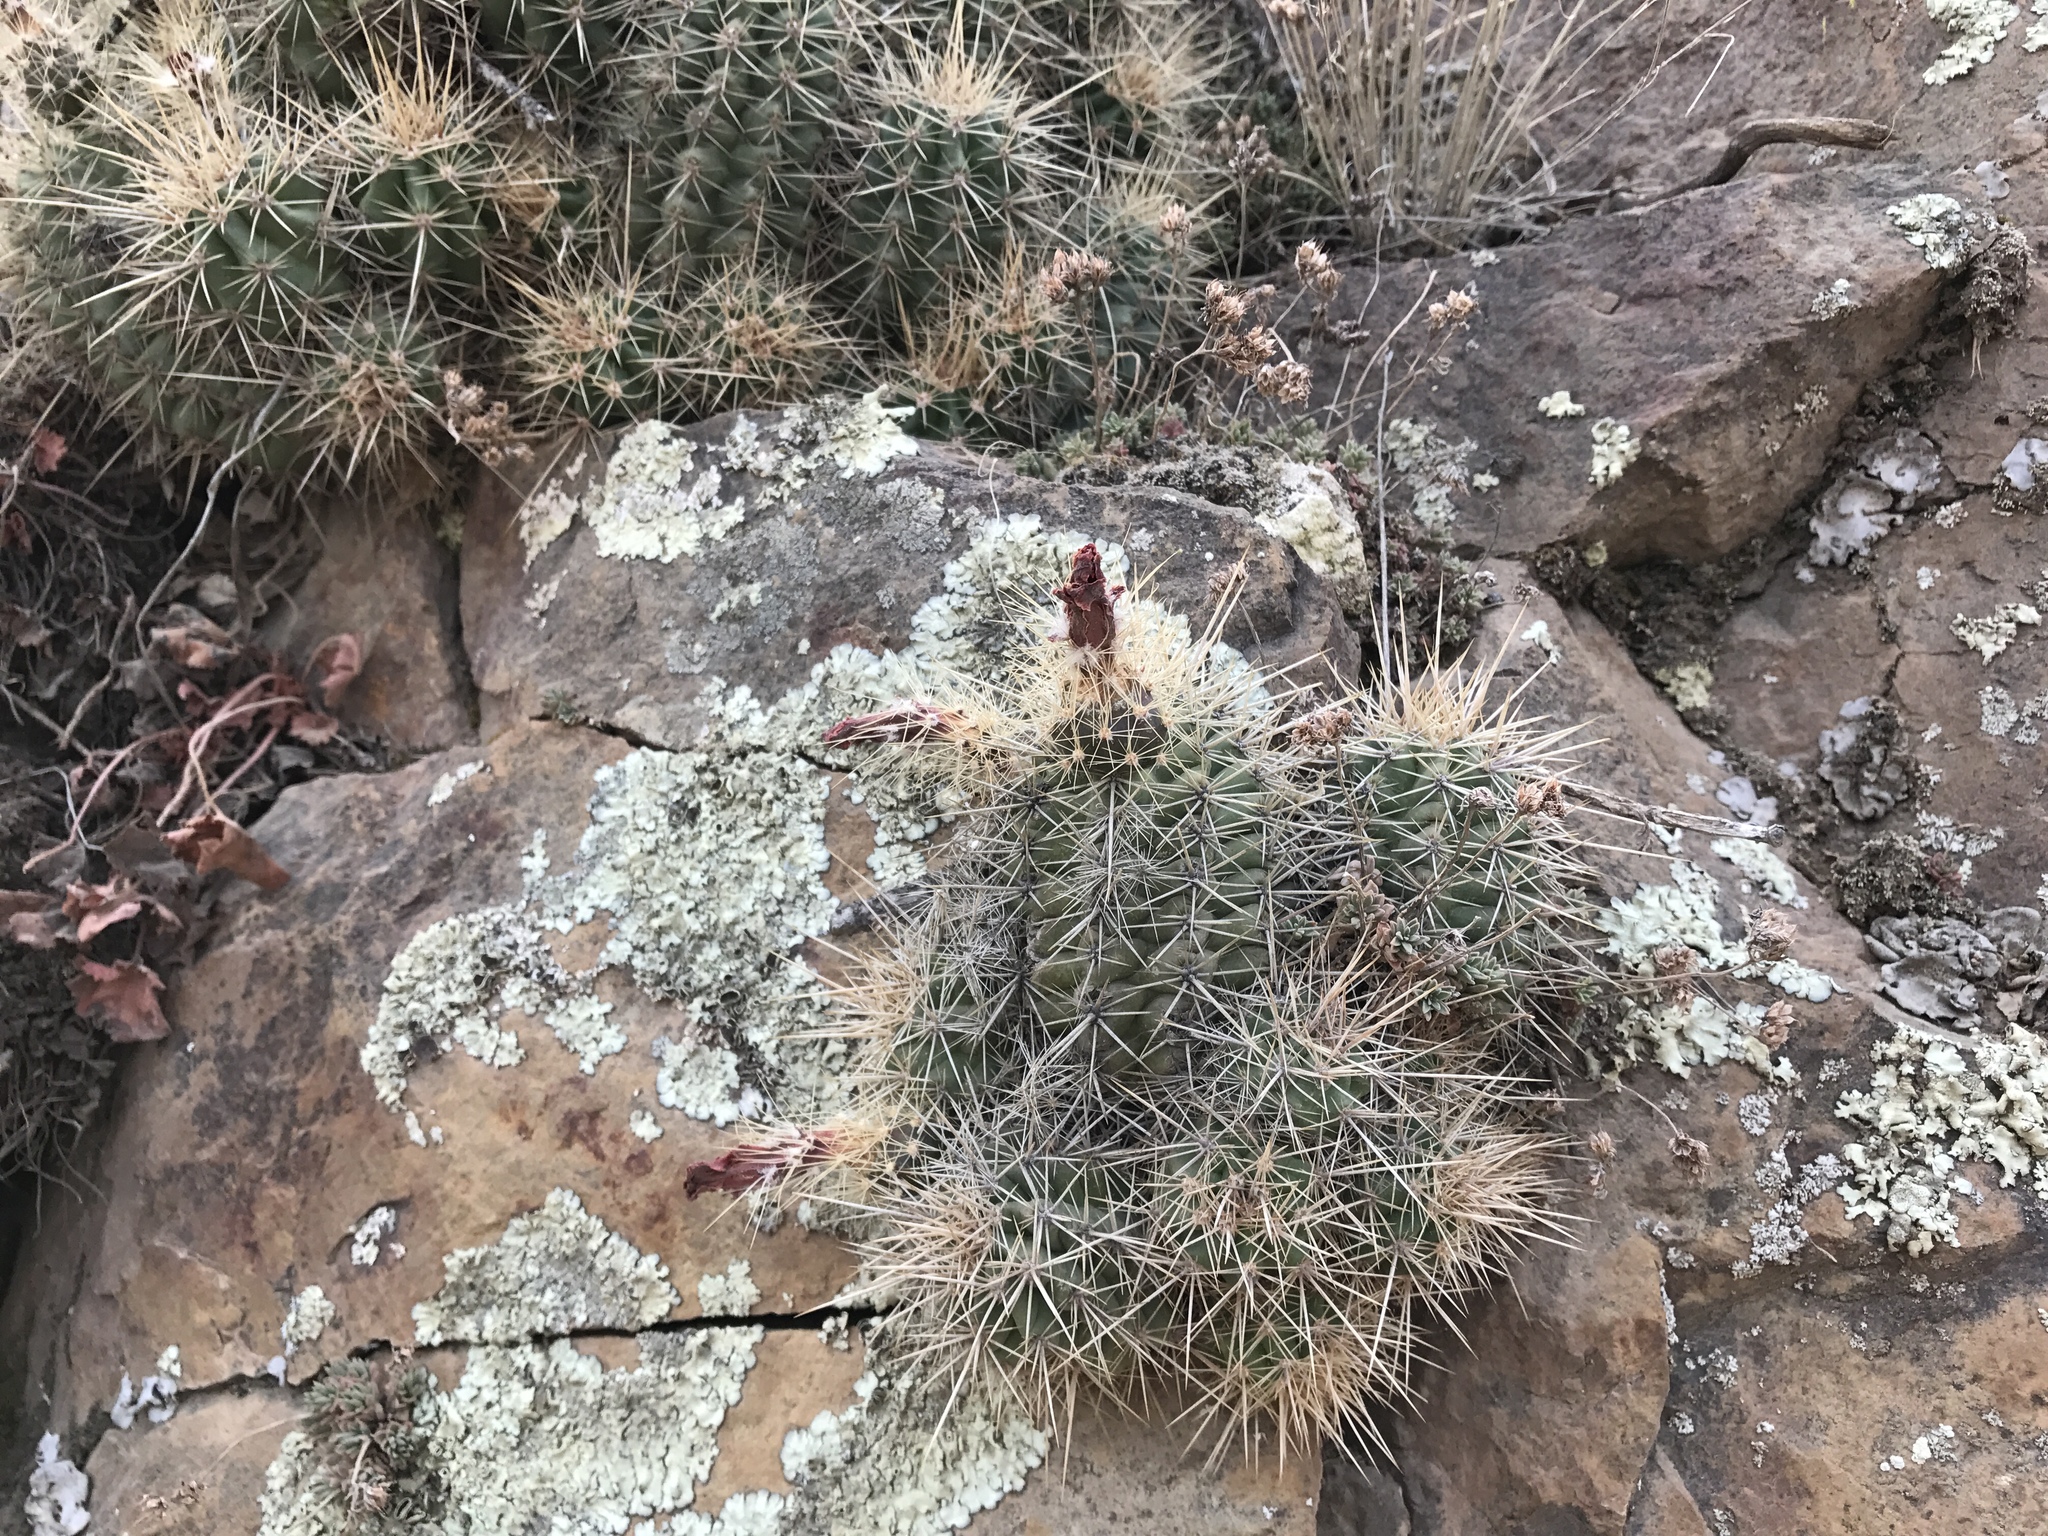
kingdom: Plantae
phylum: Tracheophyta
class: Magnoliopsida
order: Caryophyllales
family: Cactaceae
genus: Echinocereus
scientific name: Echinocereus coccineus
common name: Scarlet hedgehog cactus
